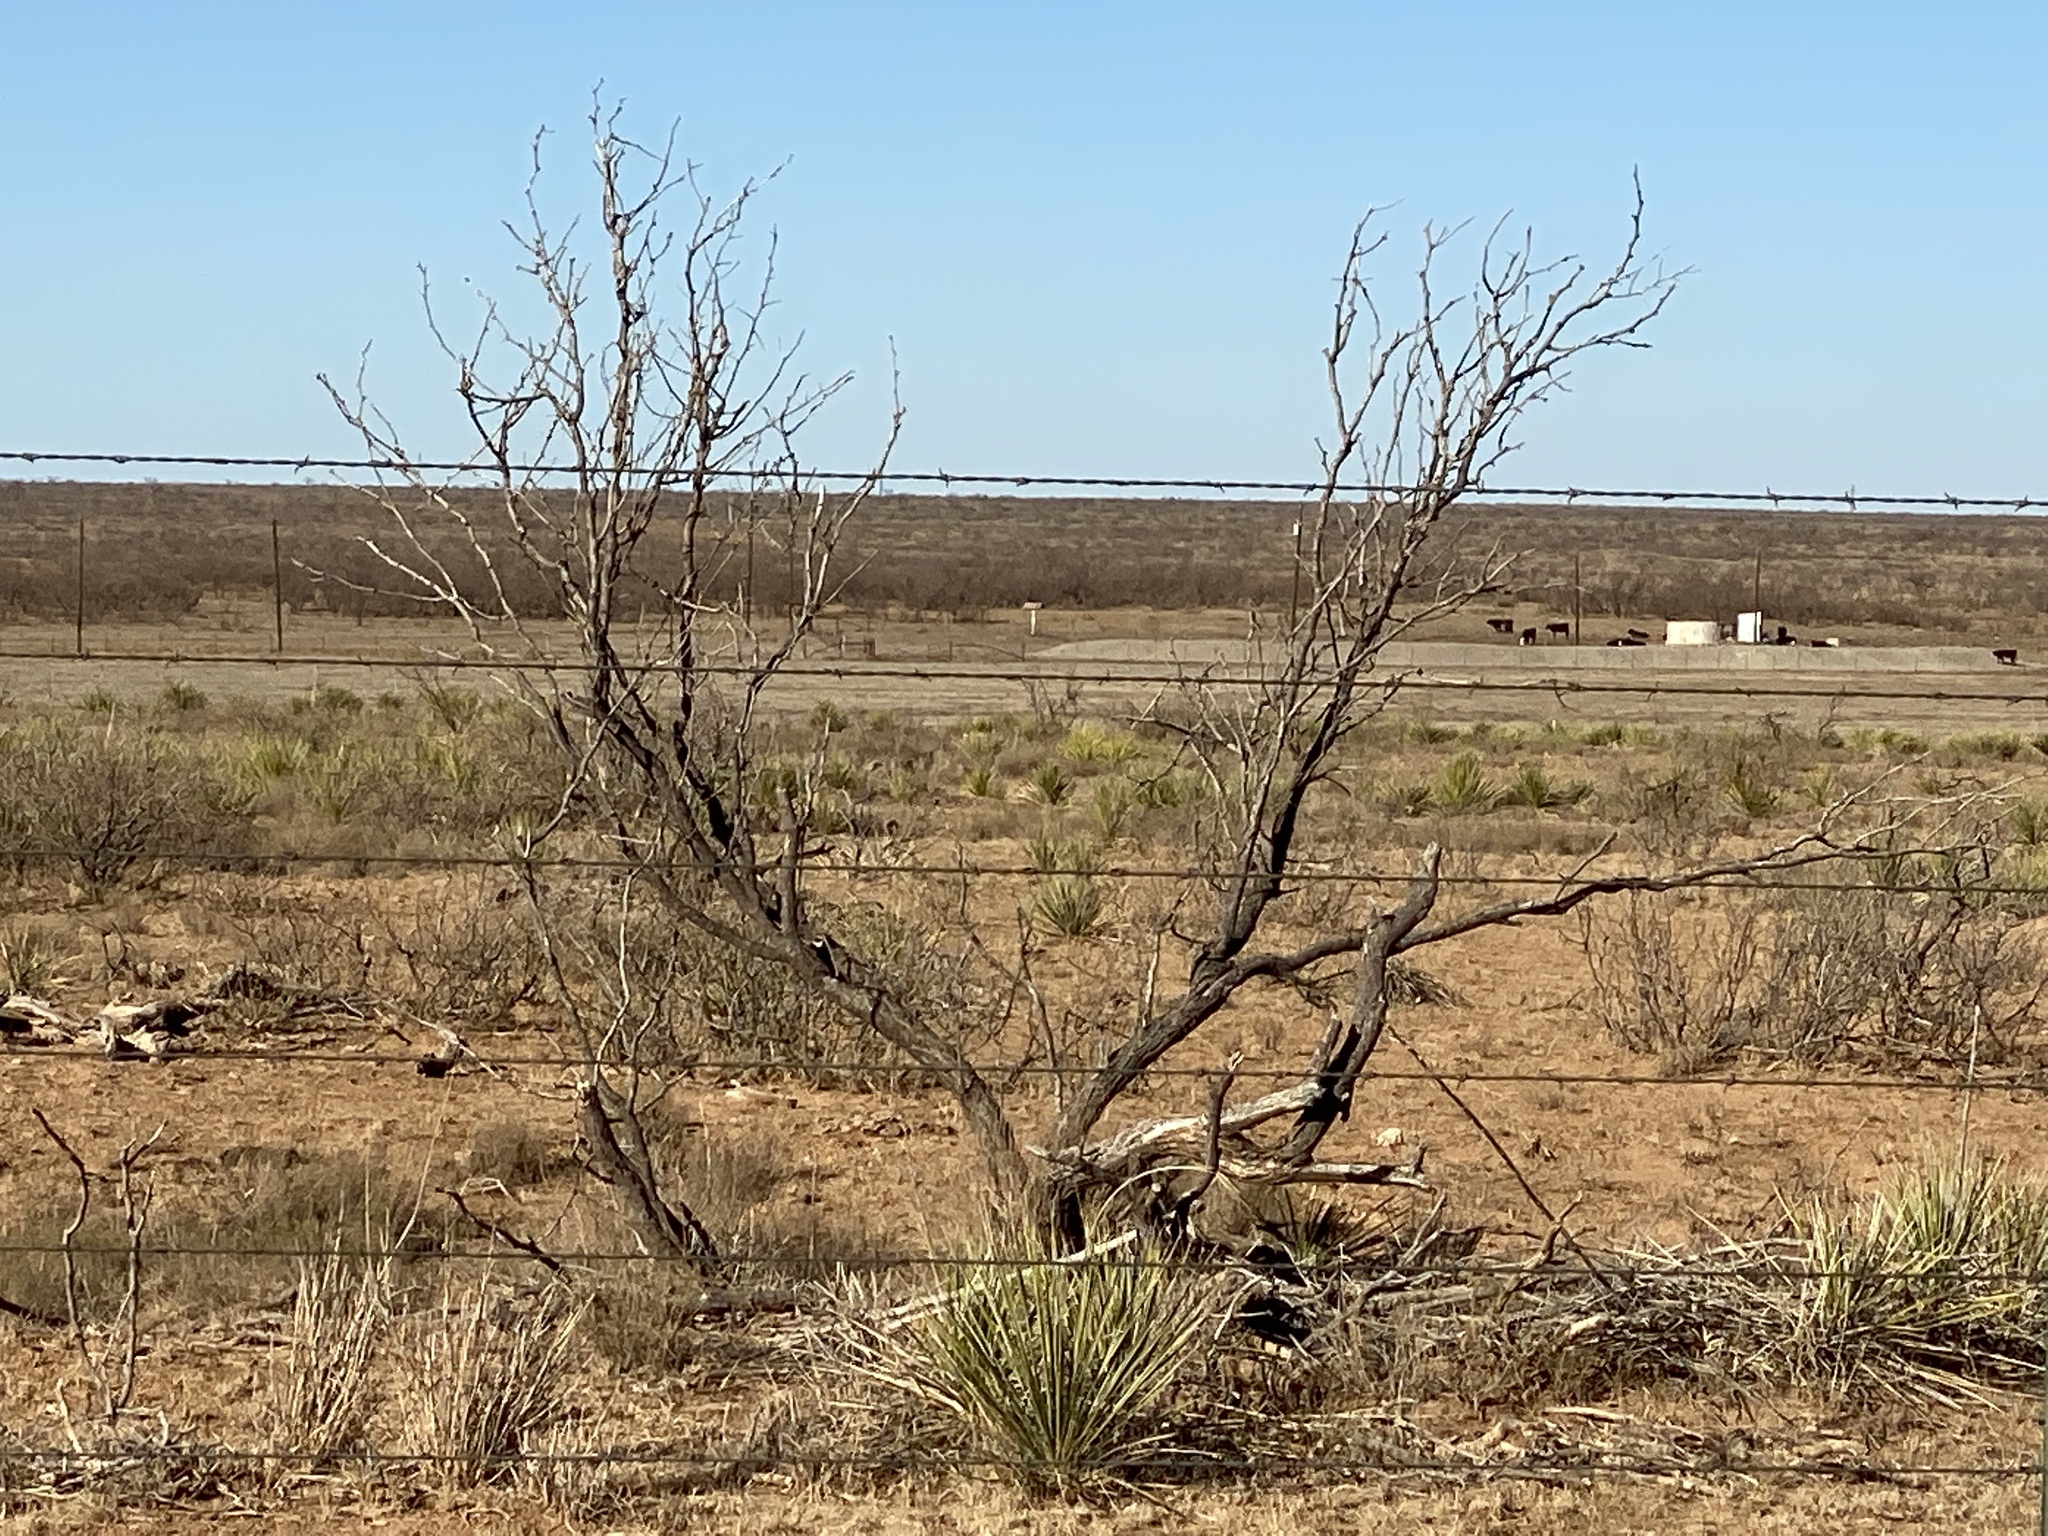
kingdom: Plantae
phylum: Tracheophyta
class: Magnoliopsida
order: Fabales
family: Fabaceae
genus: Prosopis
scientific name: Prosopis glandulosa
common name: Honey mesquite
